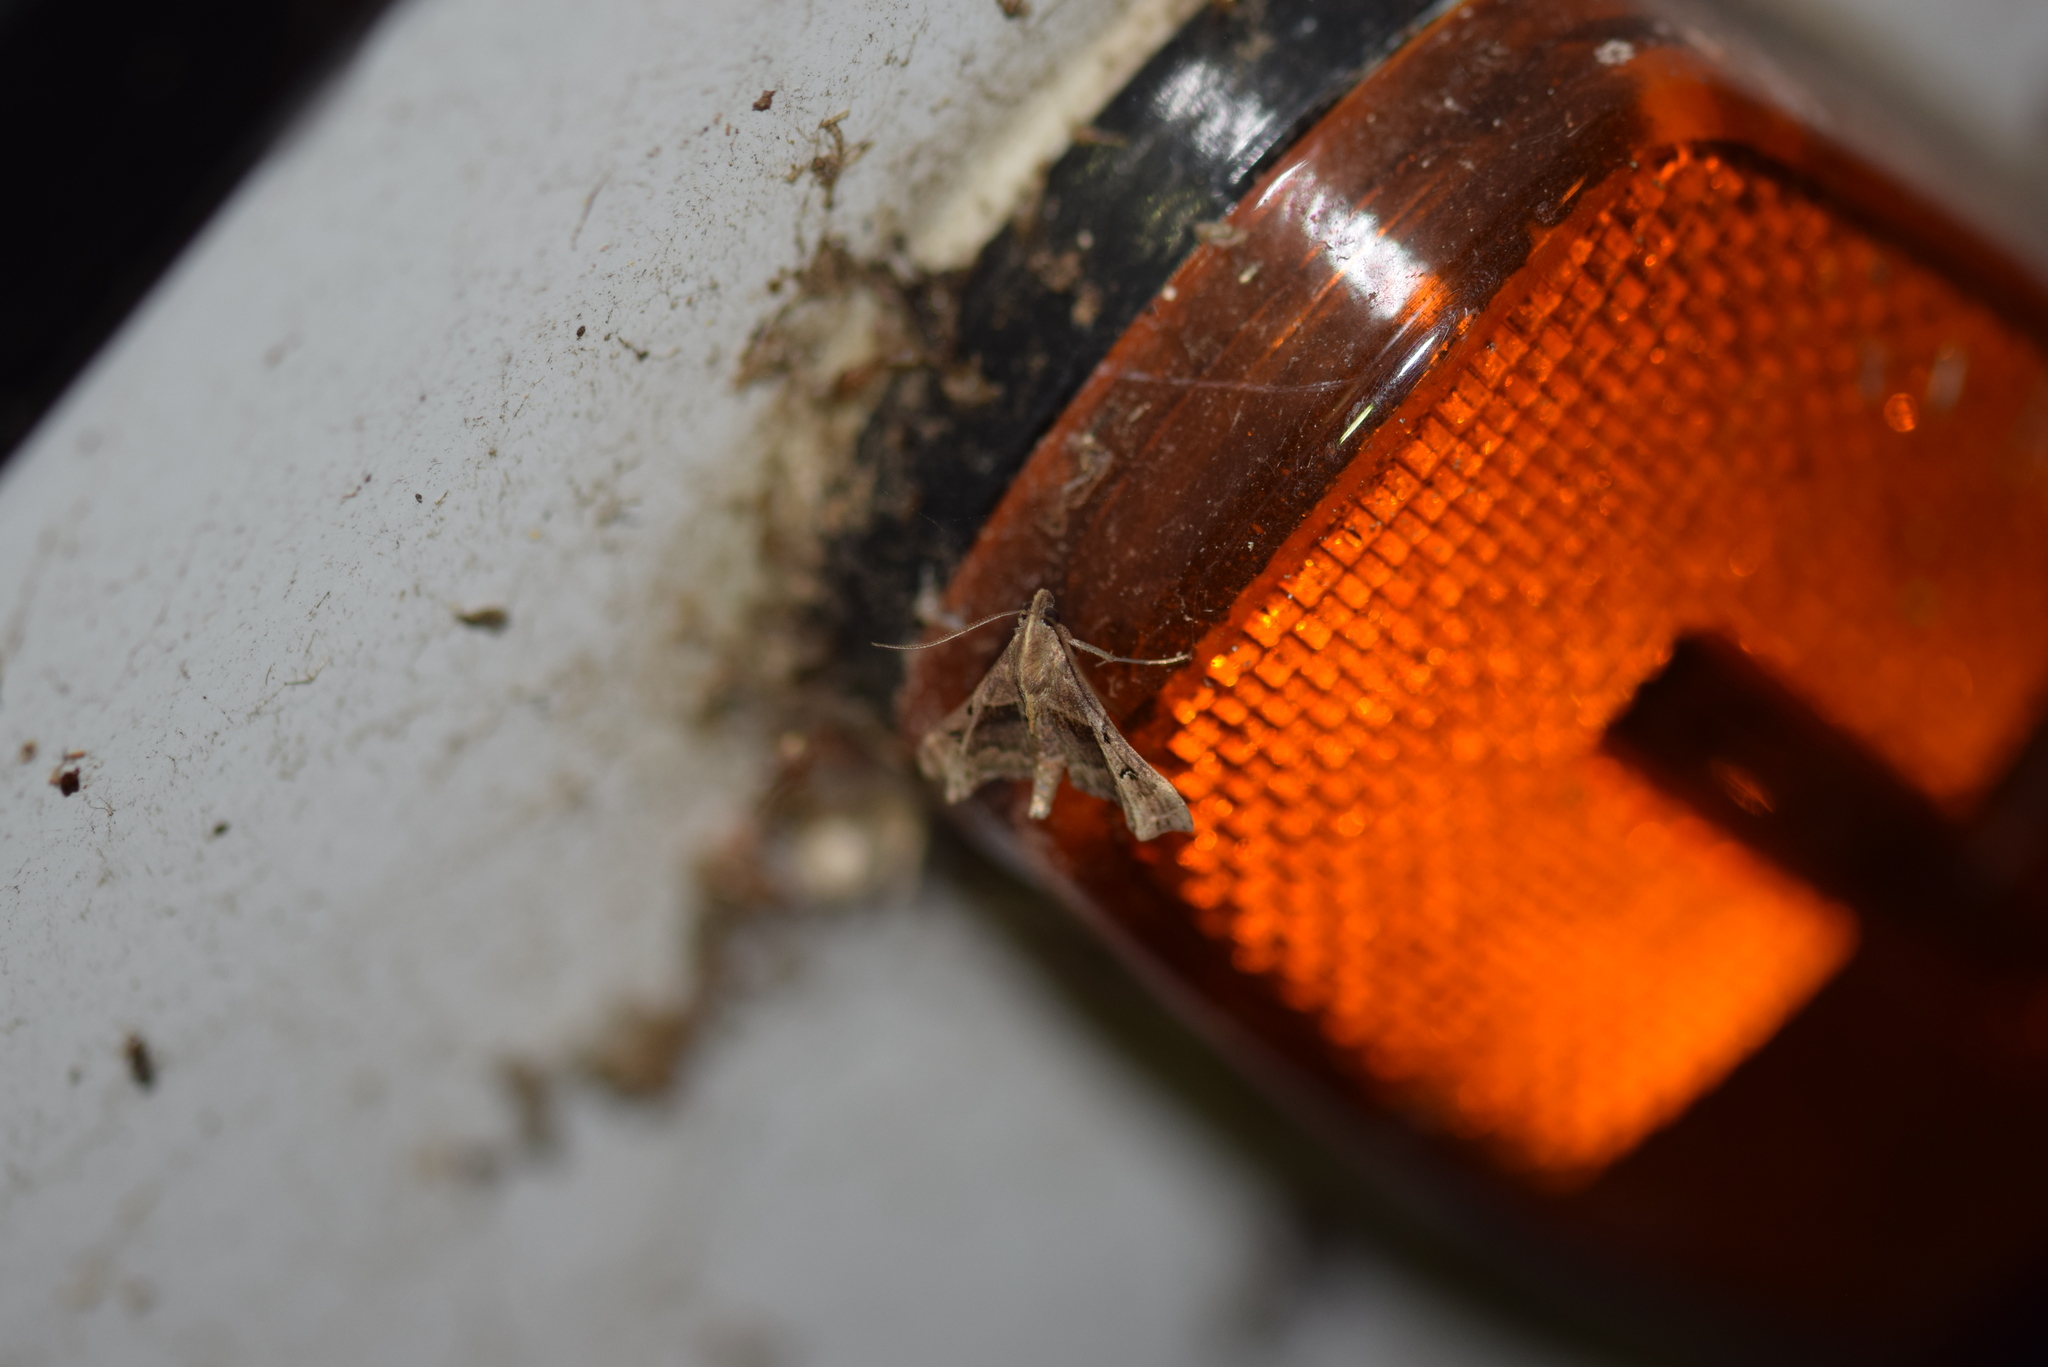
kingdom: Animalia
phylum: Arthropoda
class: Insecta
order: Lepidoptera
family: Erebidae
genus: Palthis
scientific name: Palthis asopialis
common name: Faint-spotted palthis moth
